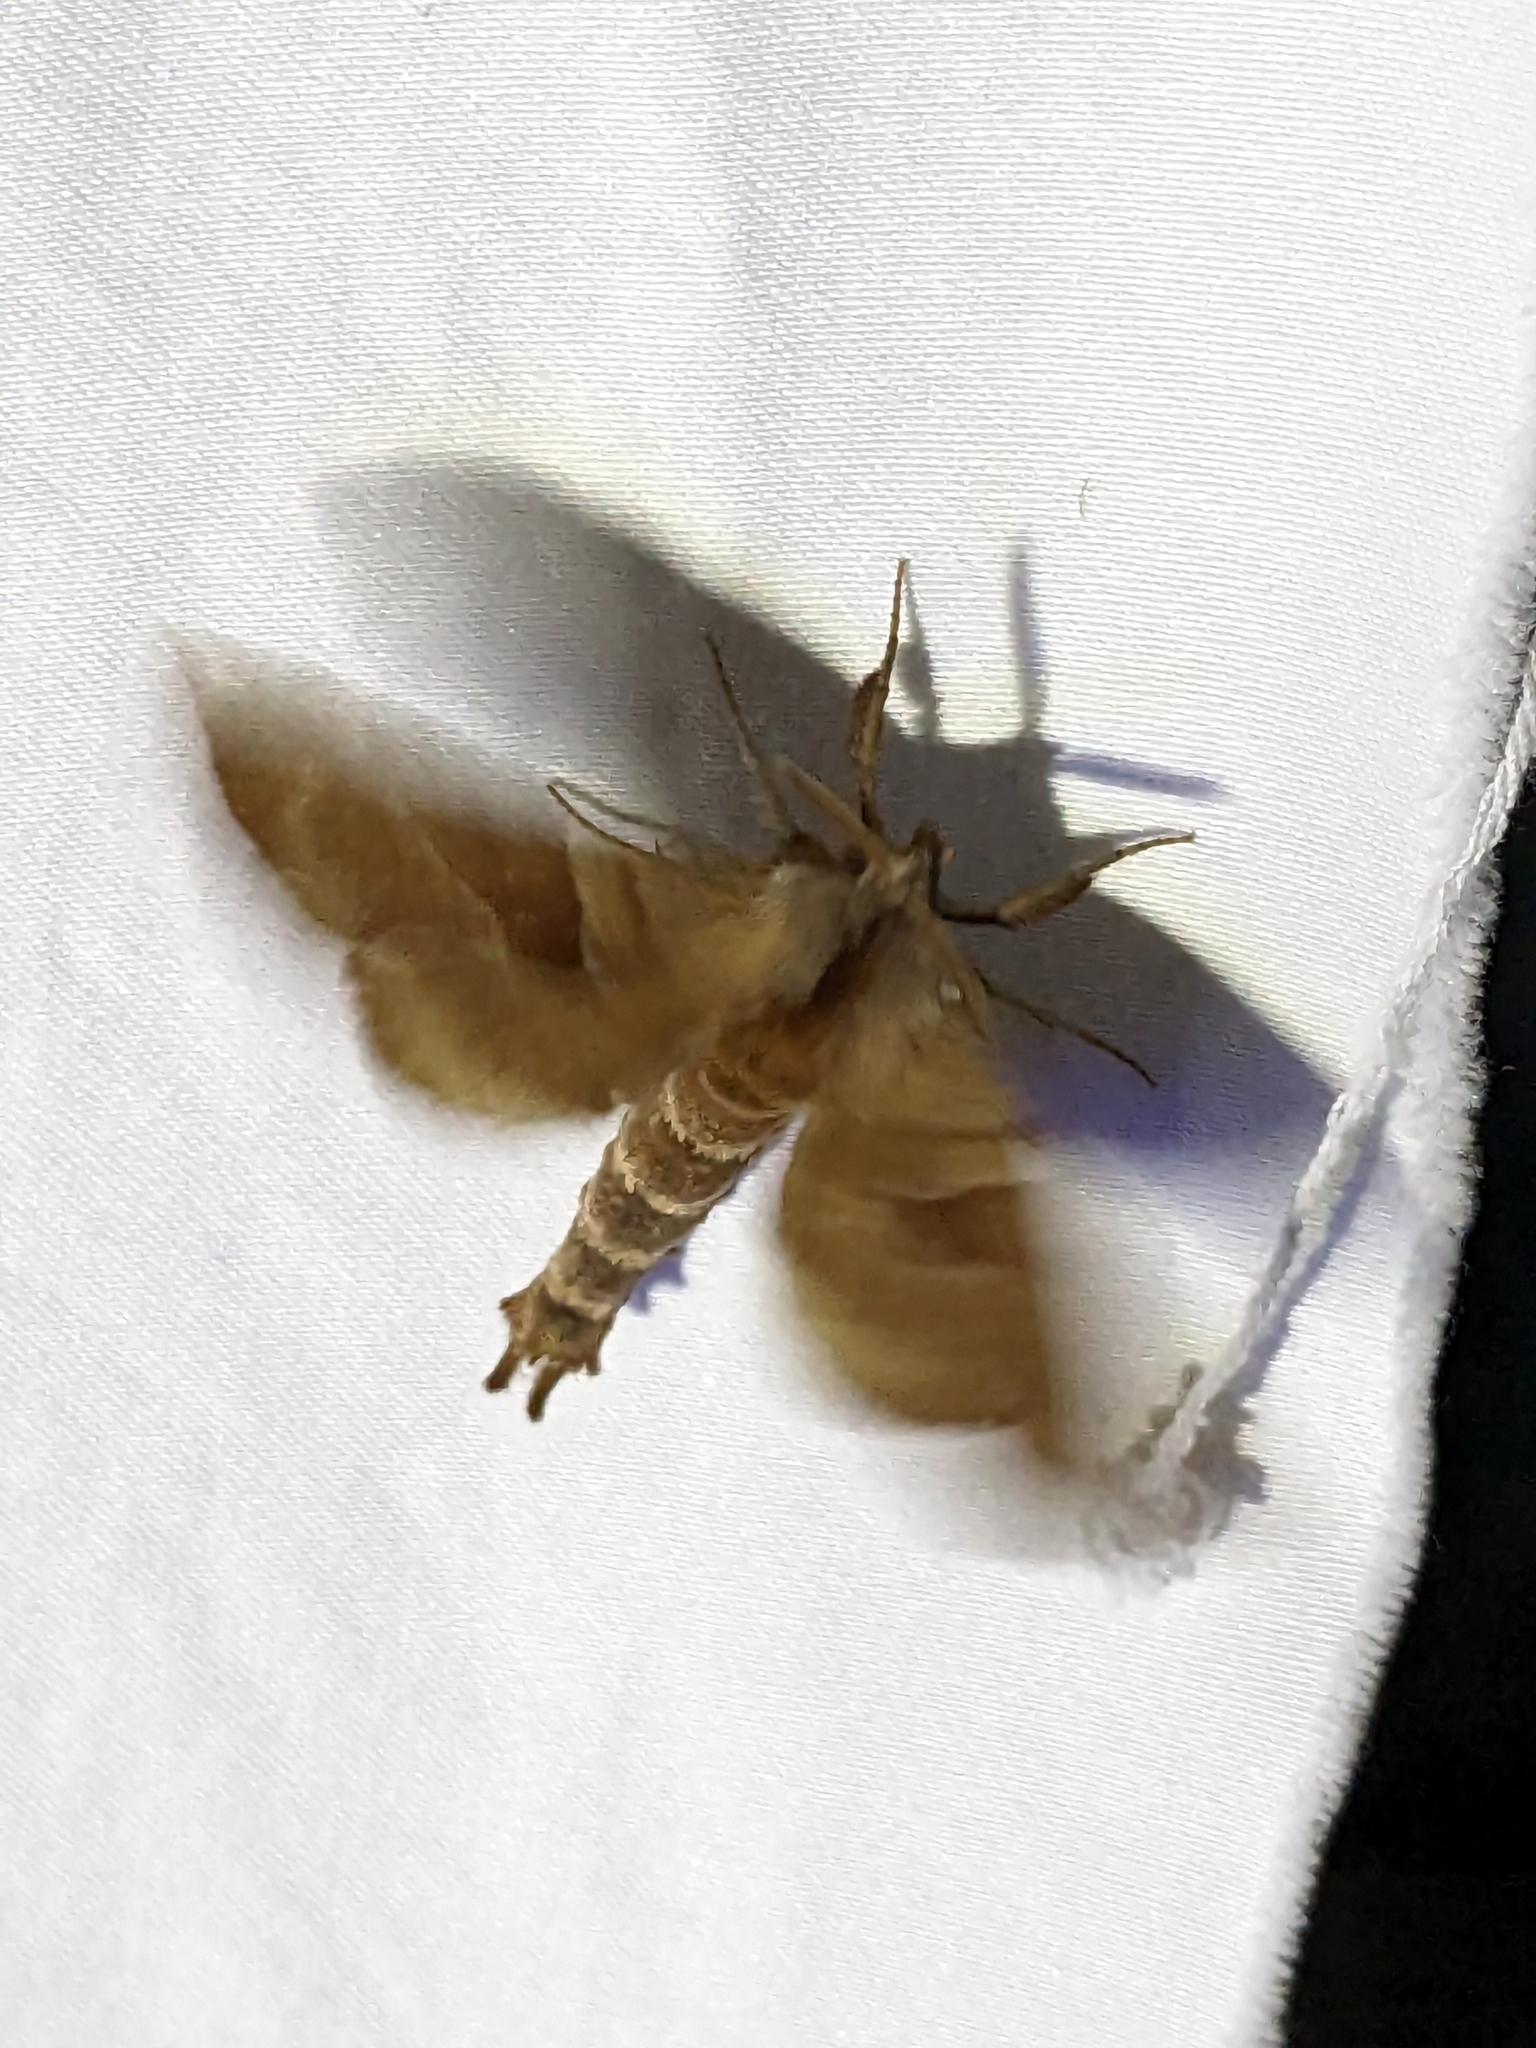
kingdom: Animalia
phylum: Arthropoda
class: Insecta
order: Lepidoptera
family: Sphingidae
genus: Amorpha
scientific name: Amorpha juglandis
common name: Walnut sphinx
